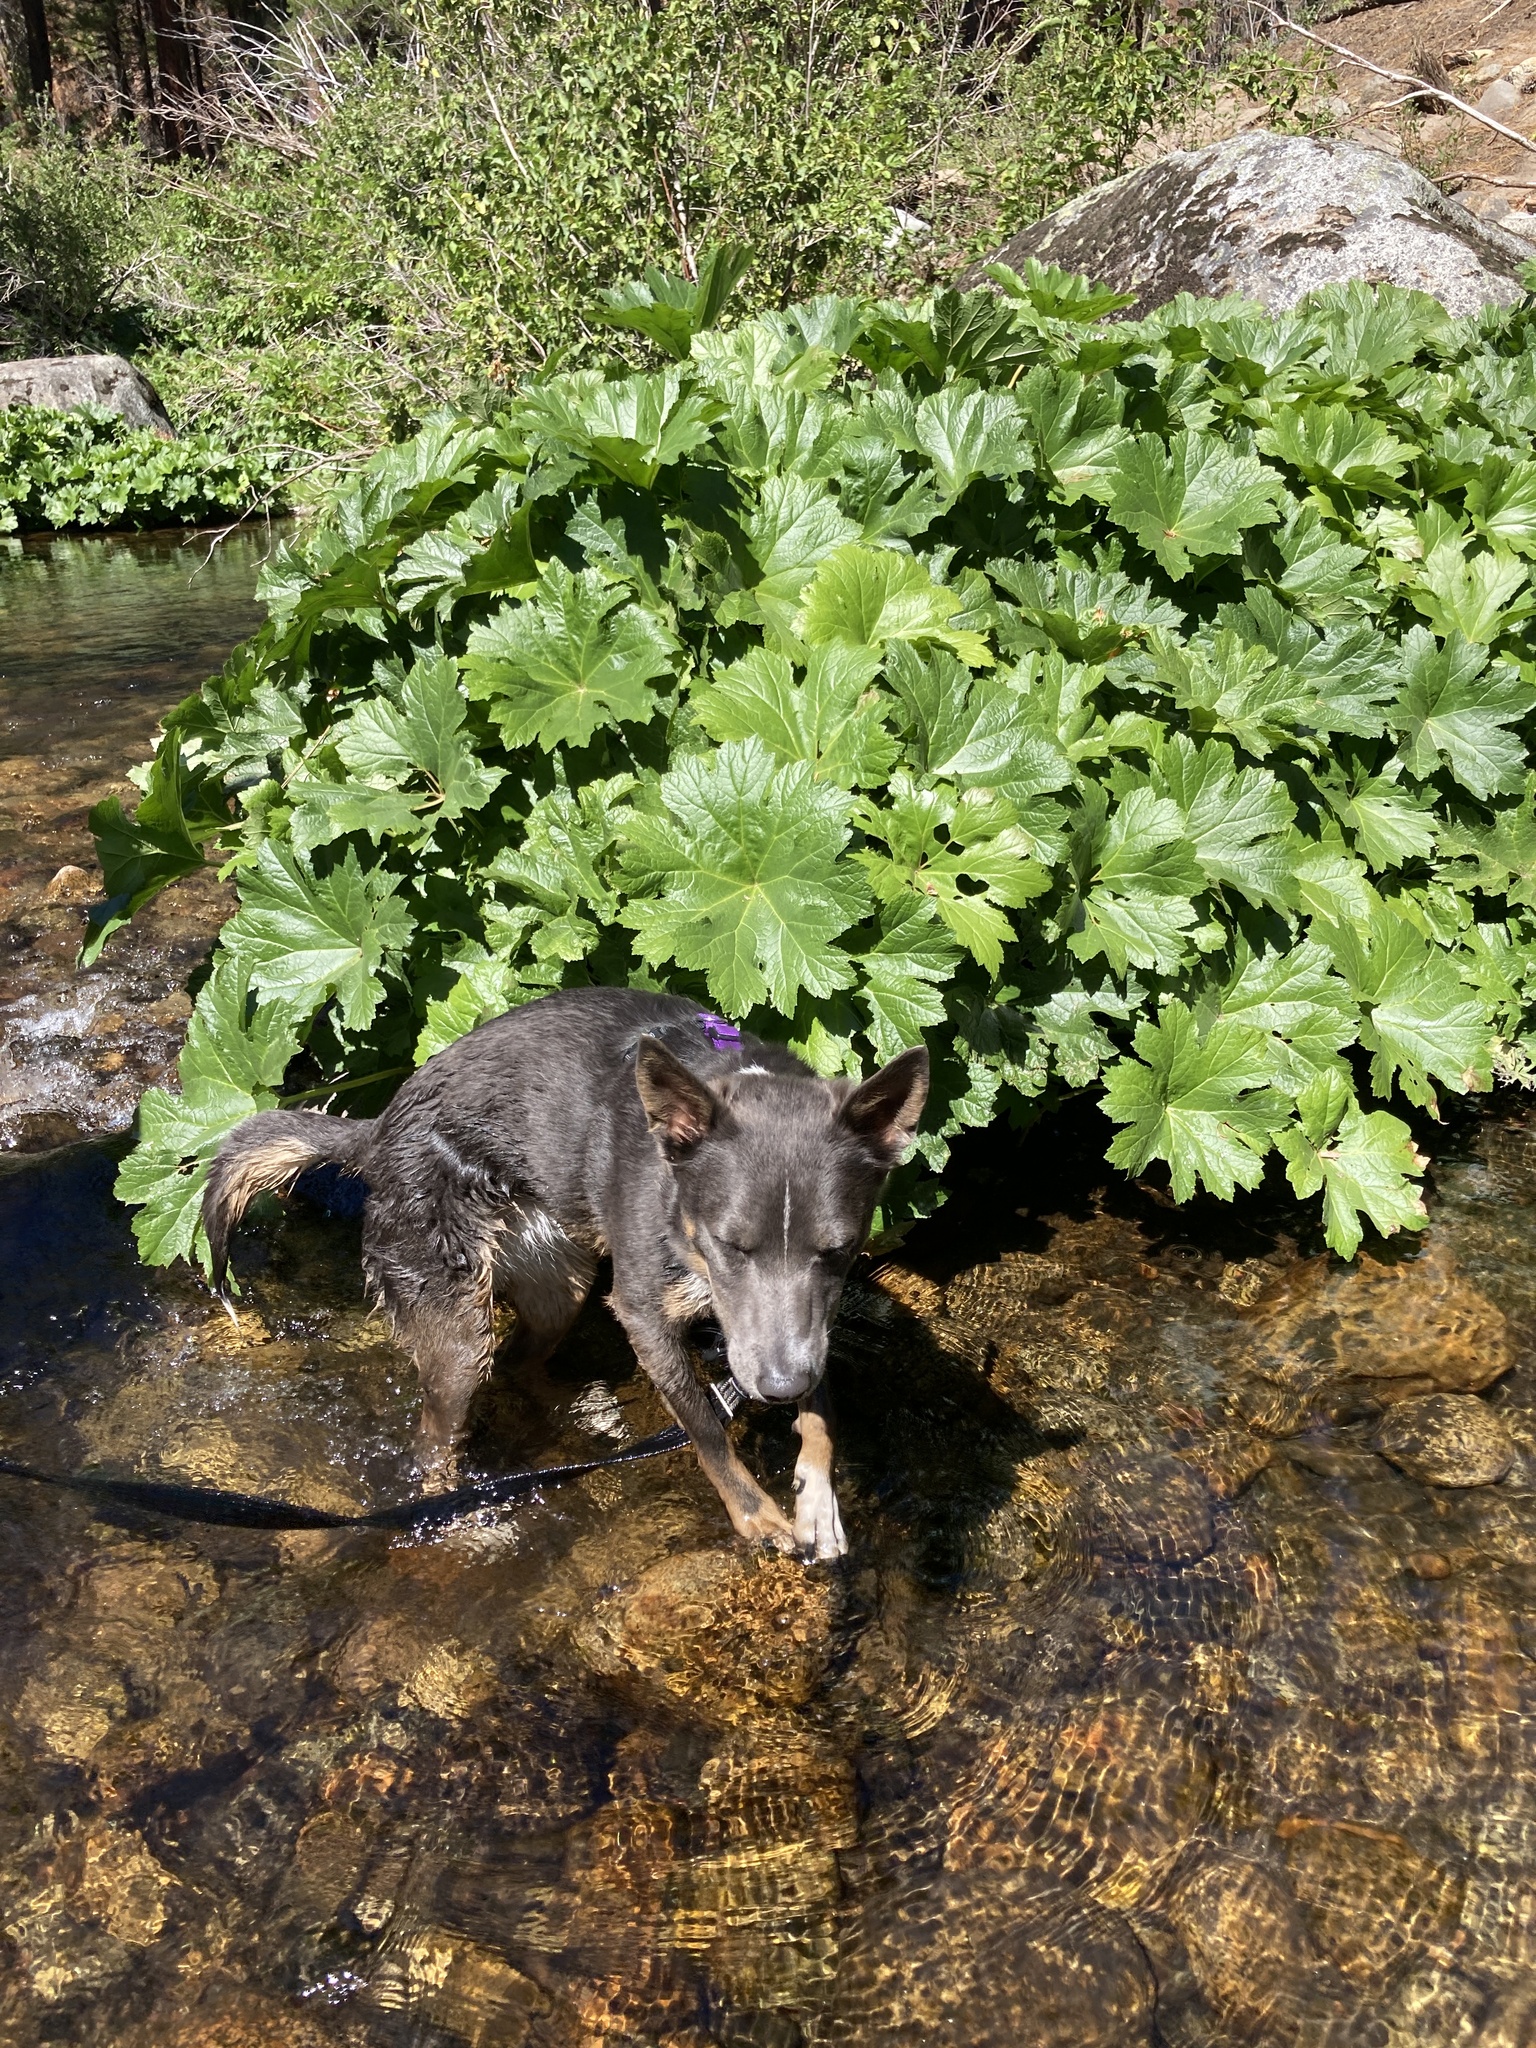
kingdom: Plantae
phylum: Tracheophyta
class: Magnoliopsida
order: Saxifragales
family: Saxifragaceae
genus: Darmera
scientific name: Darmera peltata
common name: Indian-rhubarb
